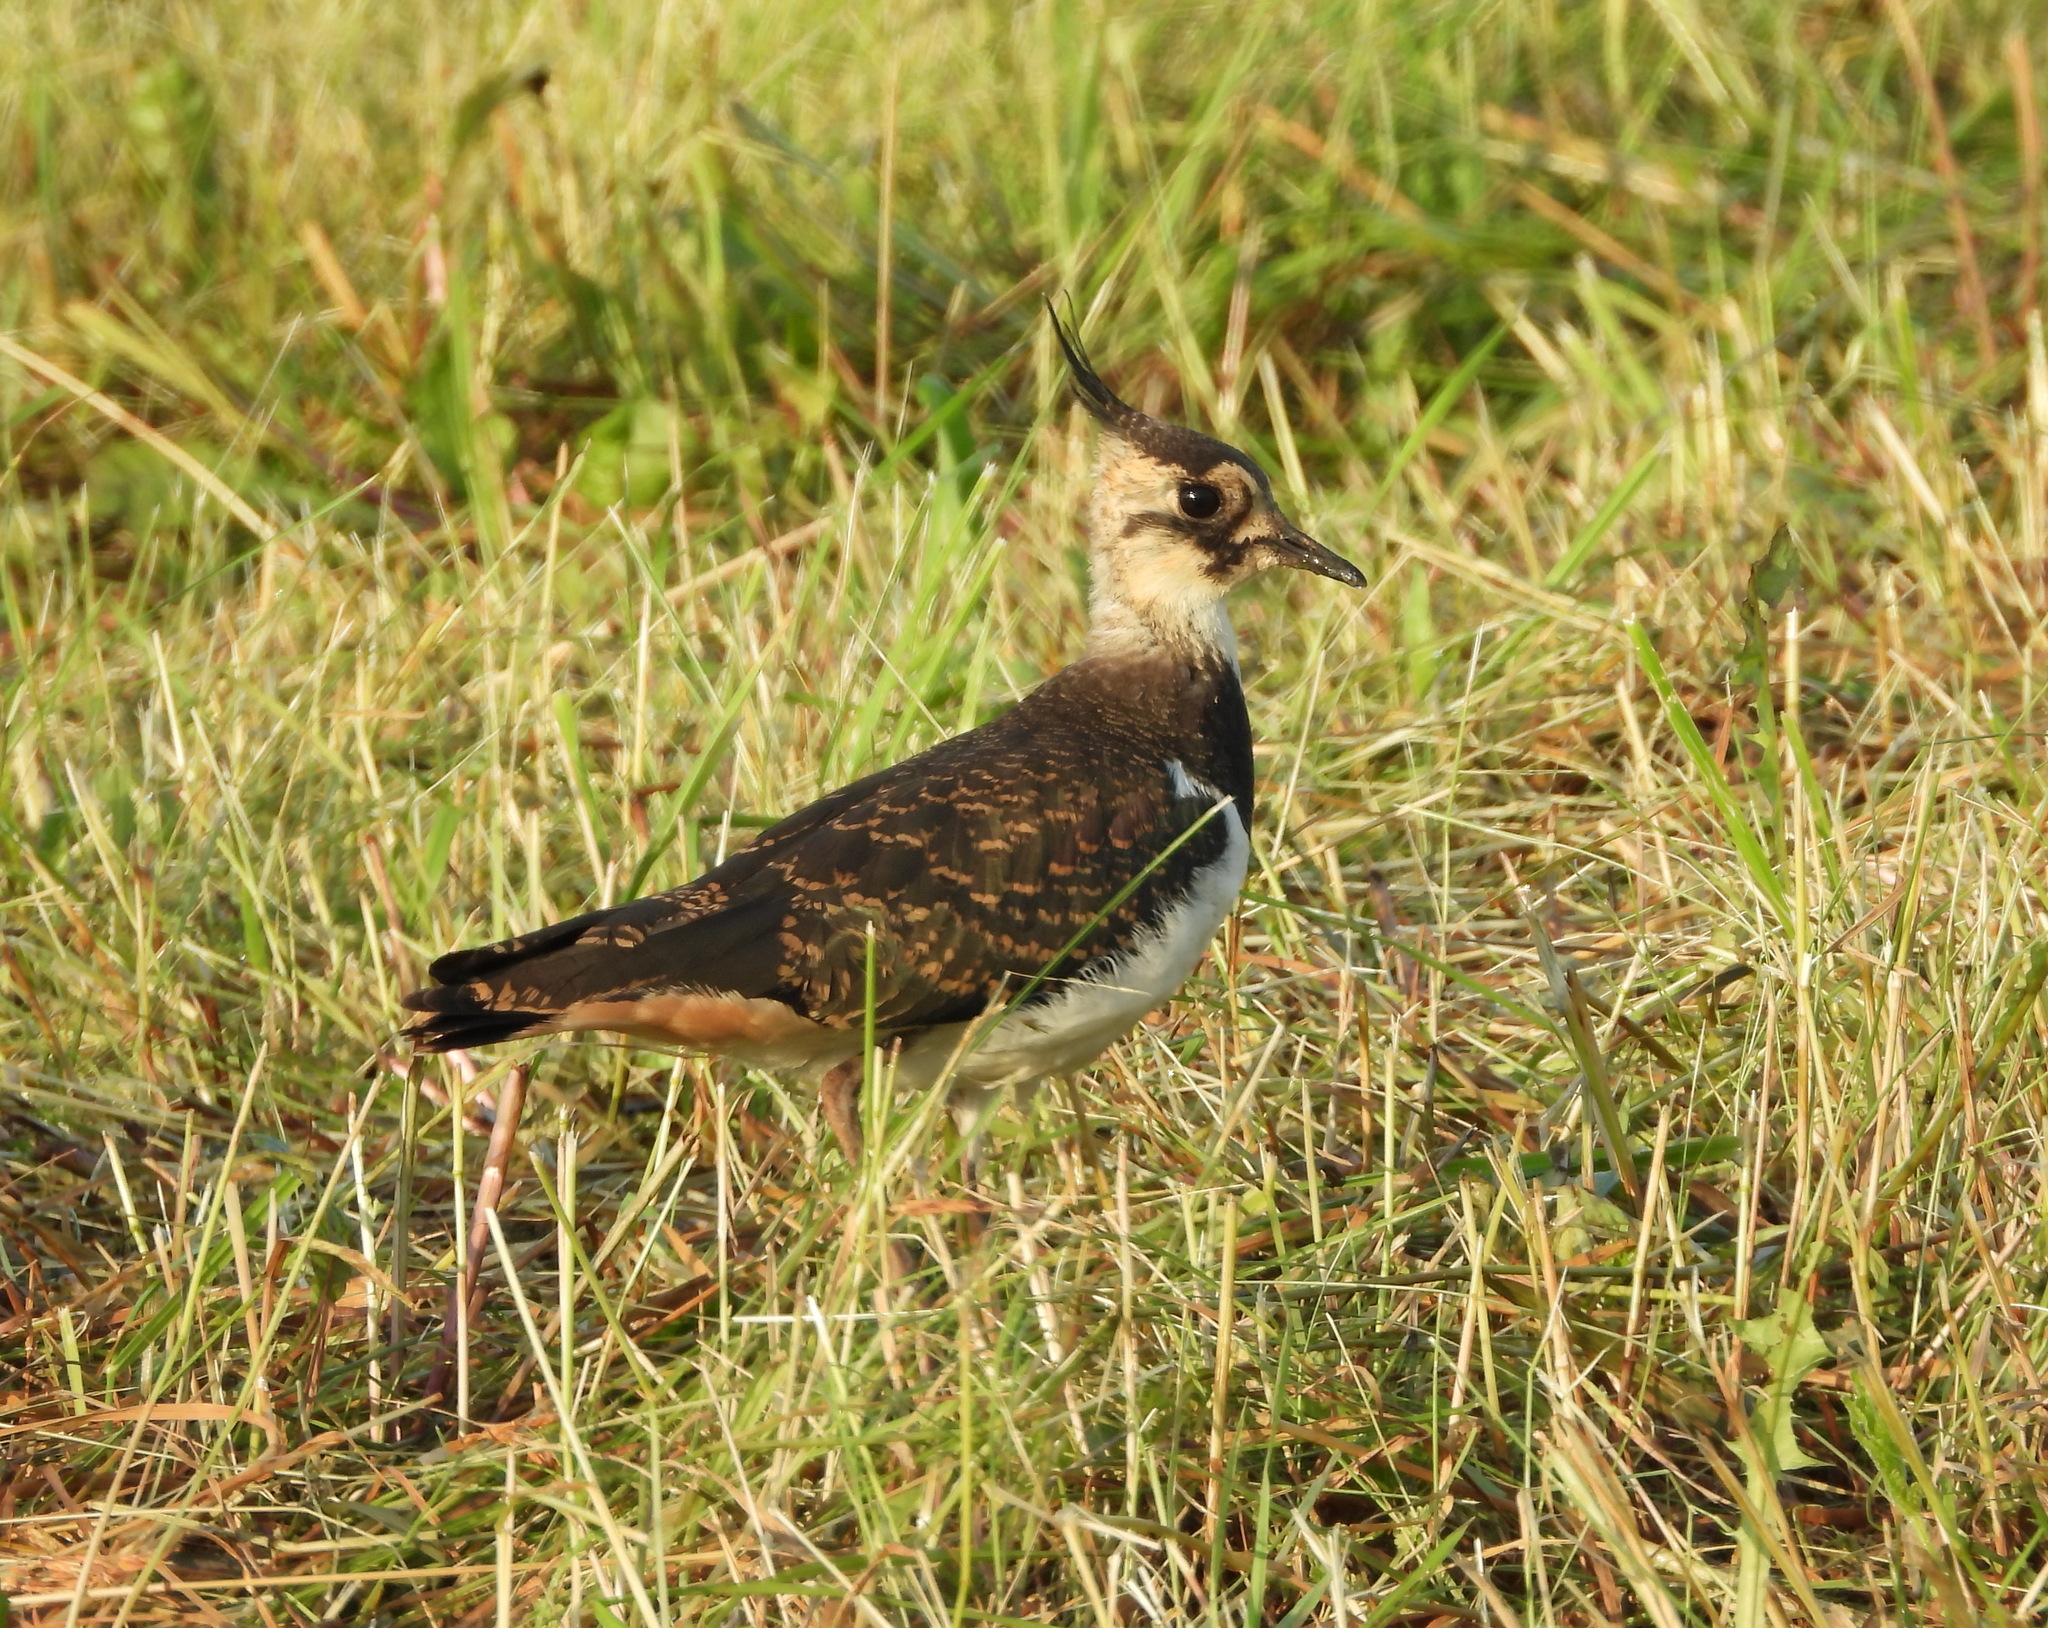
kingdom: Animalia
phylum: Chordata
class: Aves
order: Charadriiformes
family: Charadriidae
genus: Vanellus
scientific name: Vanellus vanellus
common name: Northern lapwing
